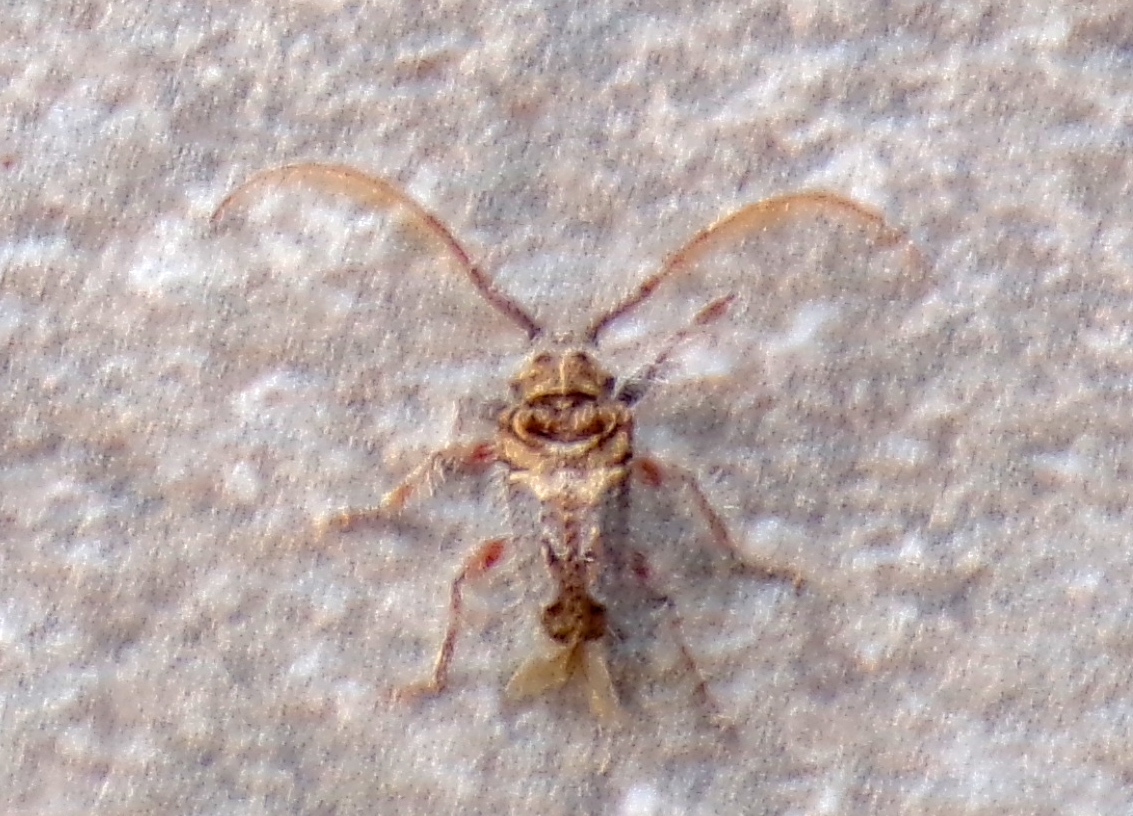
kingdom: Animalia
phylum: Arthropoda
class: Insecta
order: Coleoptera
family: Cerambycidae
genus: Poliaenus
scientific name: Poliaenus volitans
